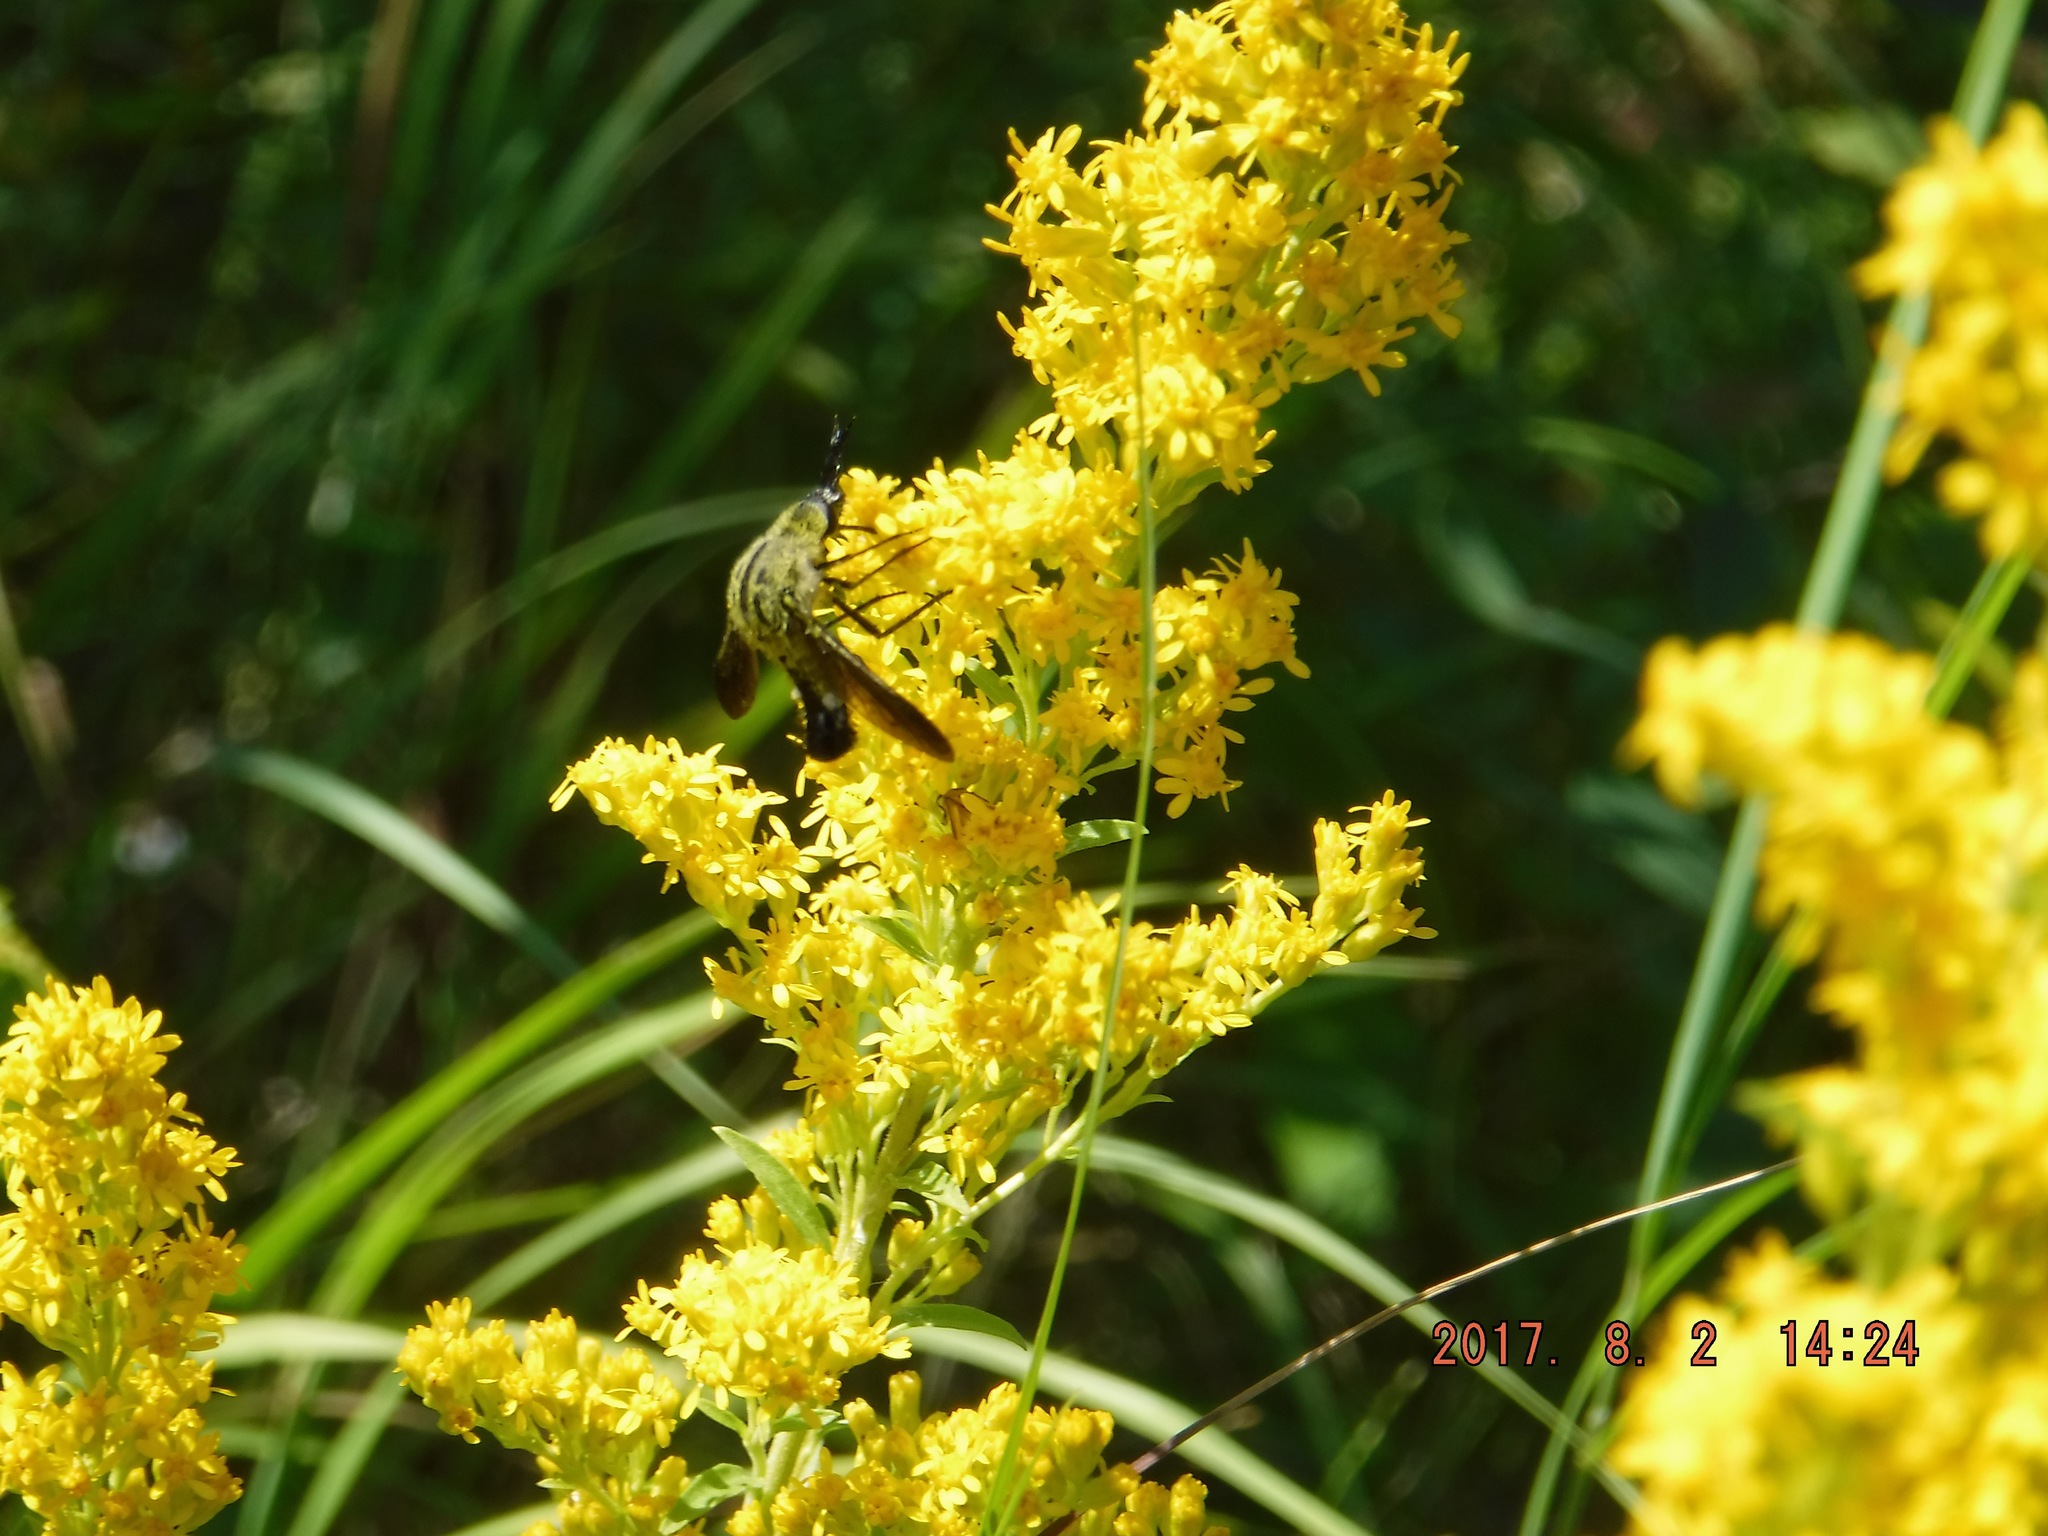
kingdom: Animalia
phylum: Arthropoda
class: Insecta
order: Diptera
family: Bombyliidae
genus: Lepidophora
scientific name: Lepidophora lutea
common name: Hunchback bee fly
